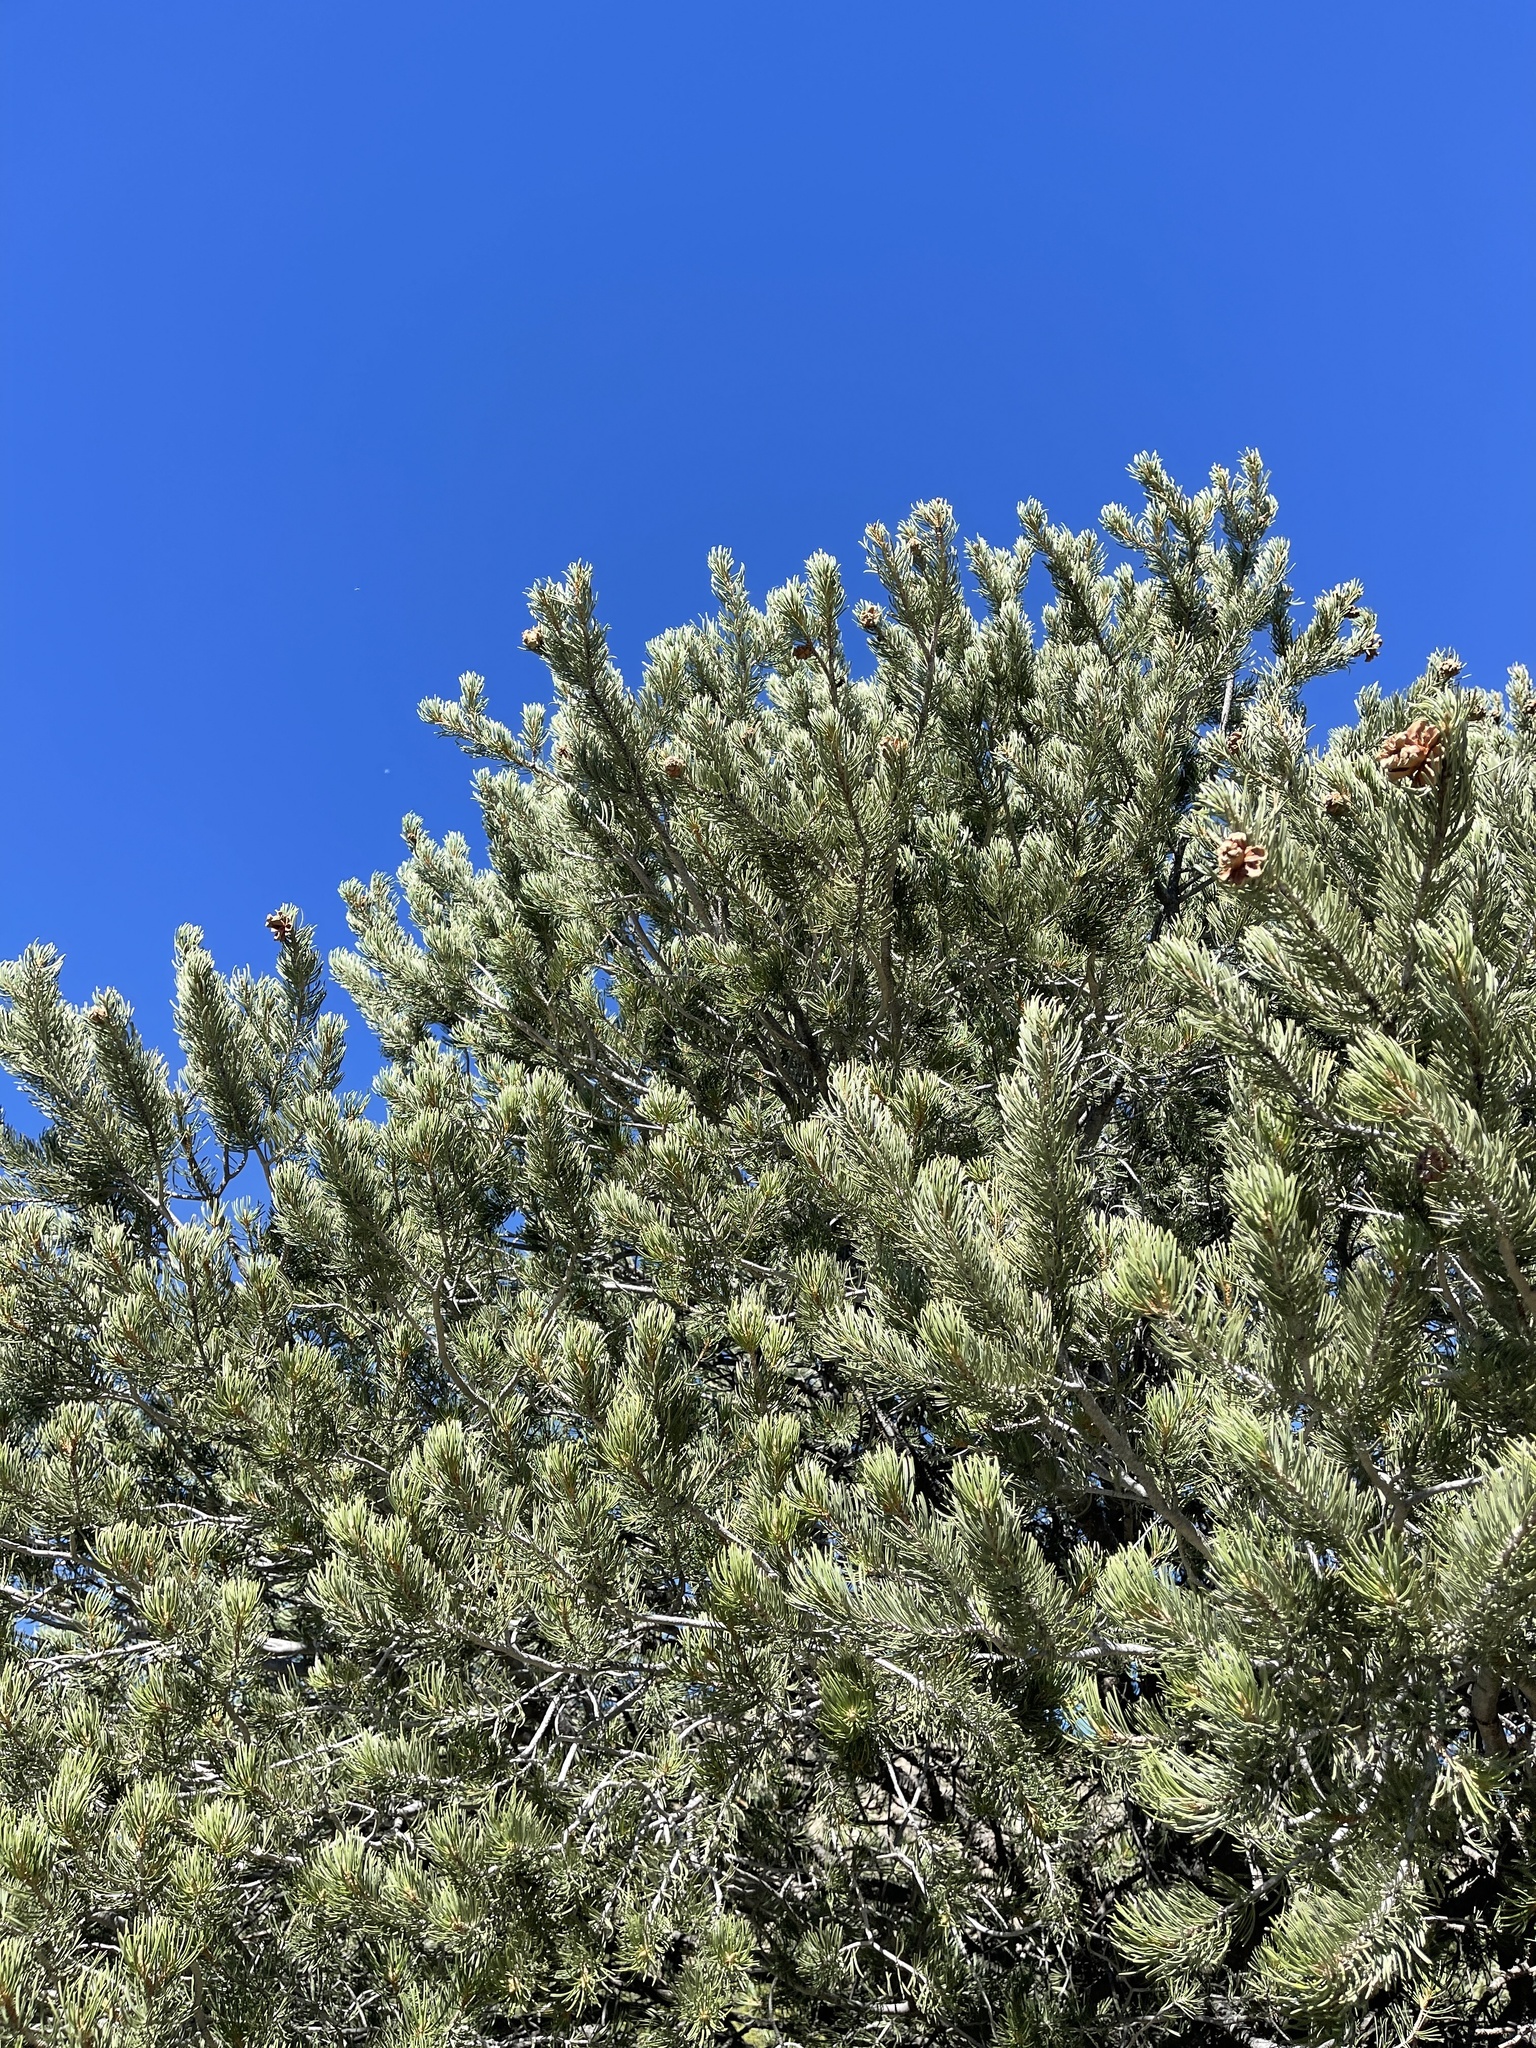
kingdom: Plantae
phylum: Tracheophyta
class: Pinopsida
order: Pinales
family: Pinaceae
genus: Pinus
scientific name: Pinus edulis
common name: Colorado pinyon
